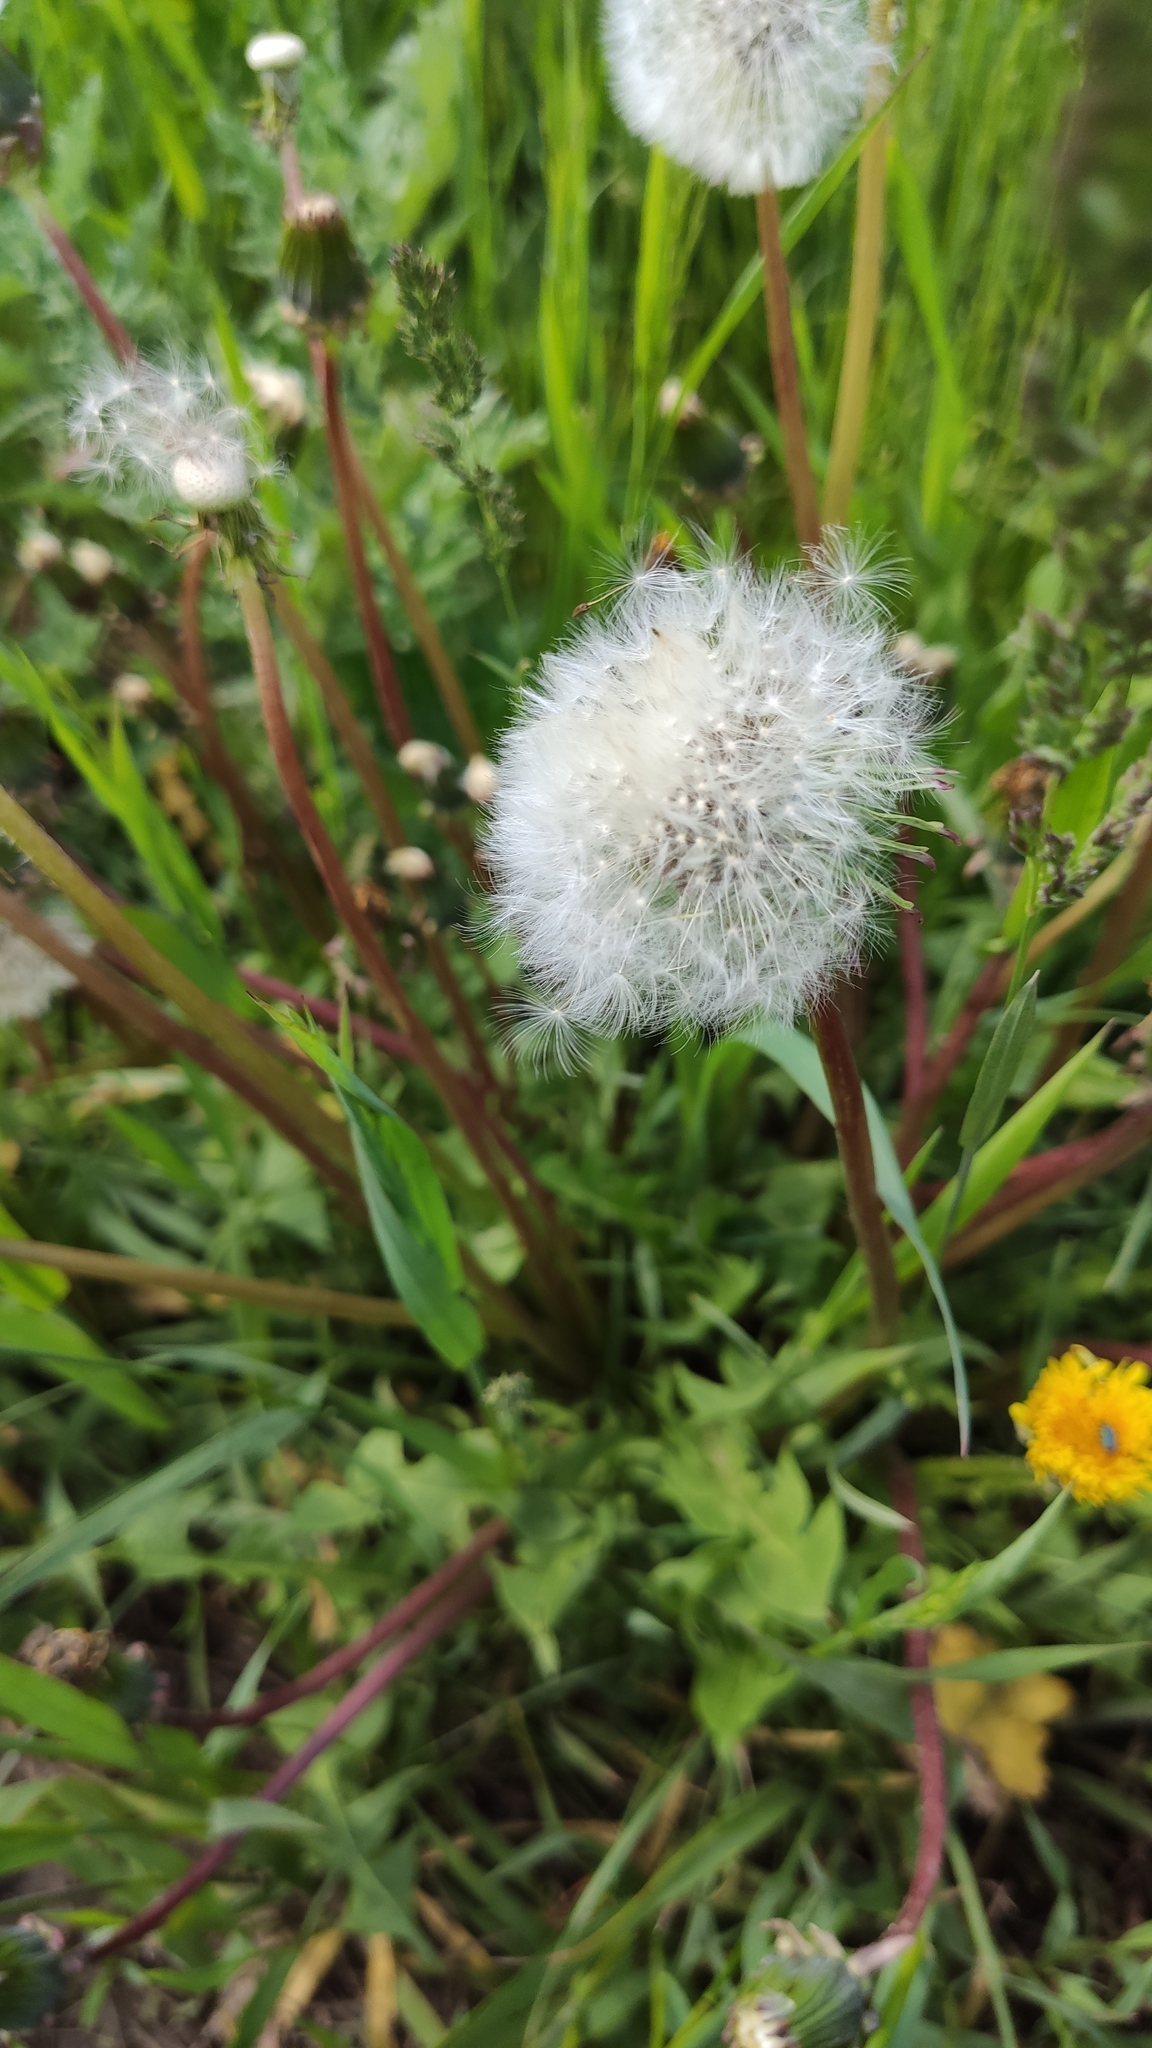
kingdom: Plantae
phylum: Tracheophyta
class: Magnoliopsida
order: Asterales
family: Asteraceae
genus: Taraxacum
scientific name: Taraxacum officinale
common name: Common dandelion
